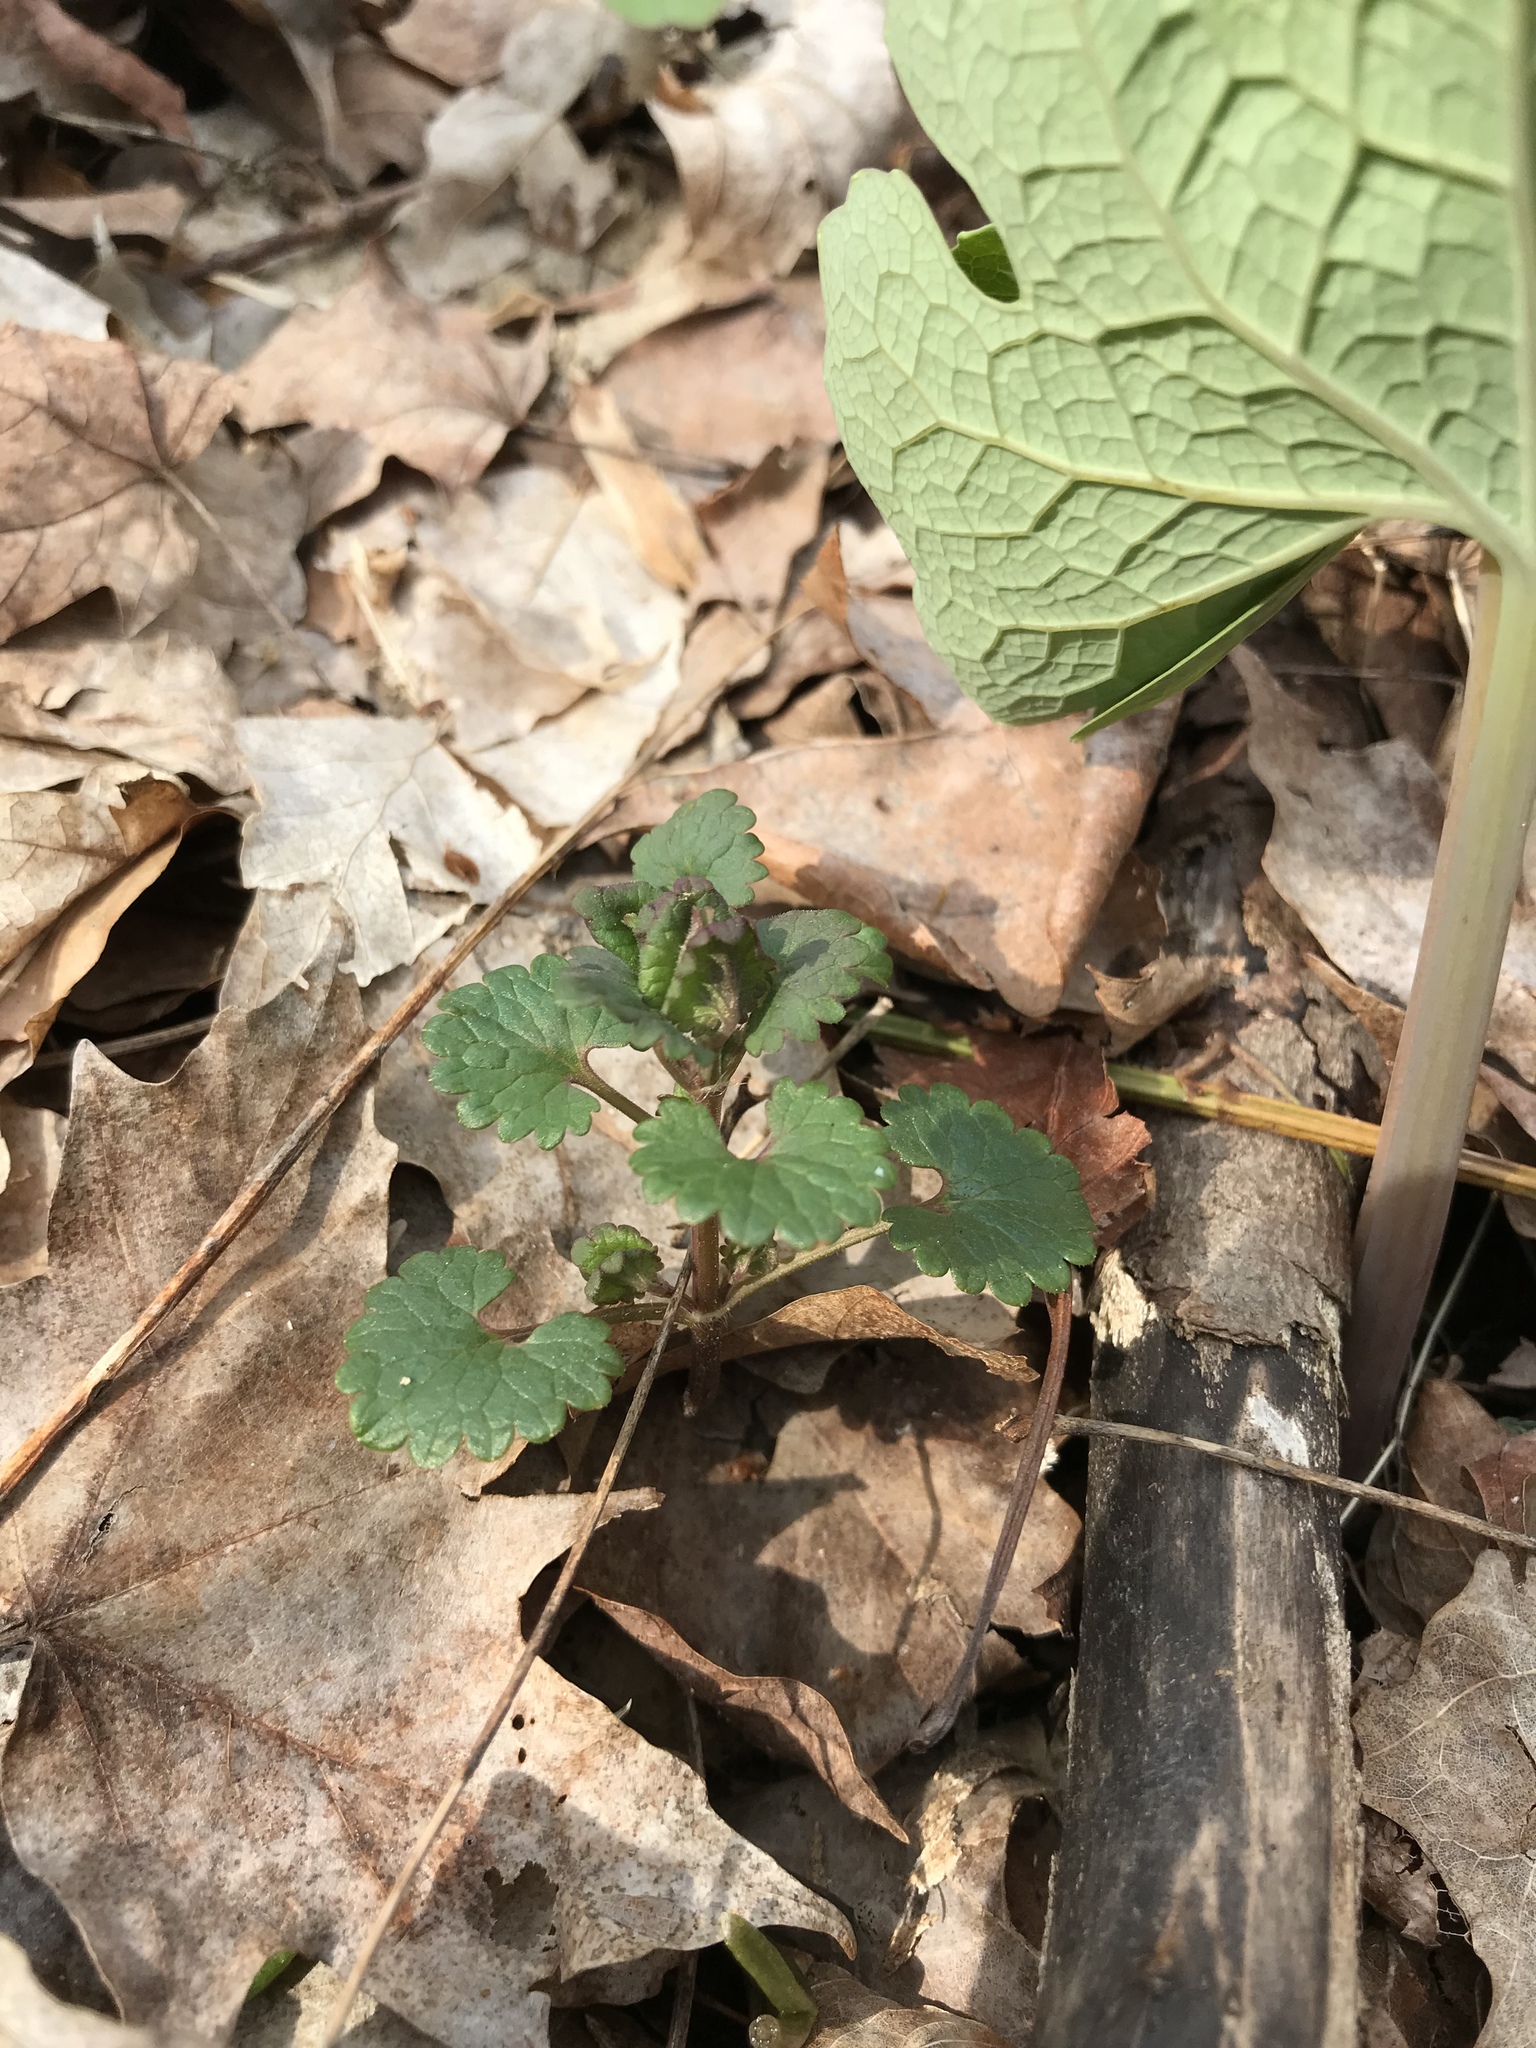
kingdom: Plantae
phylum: Tracheophyta
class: Magnoliopsida
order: Lamiales
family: Lamiaceae
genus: Glechoma
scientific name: Glechoma hederacea
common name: Ground ivy
